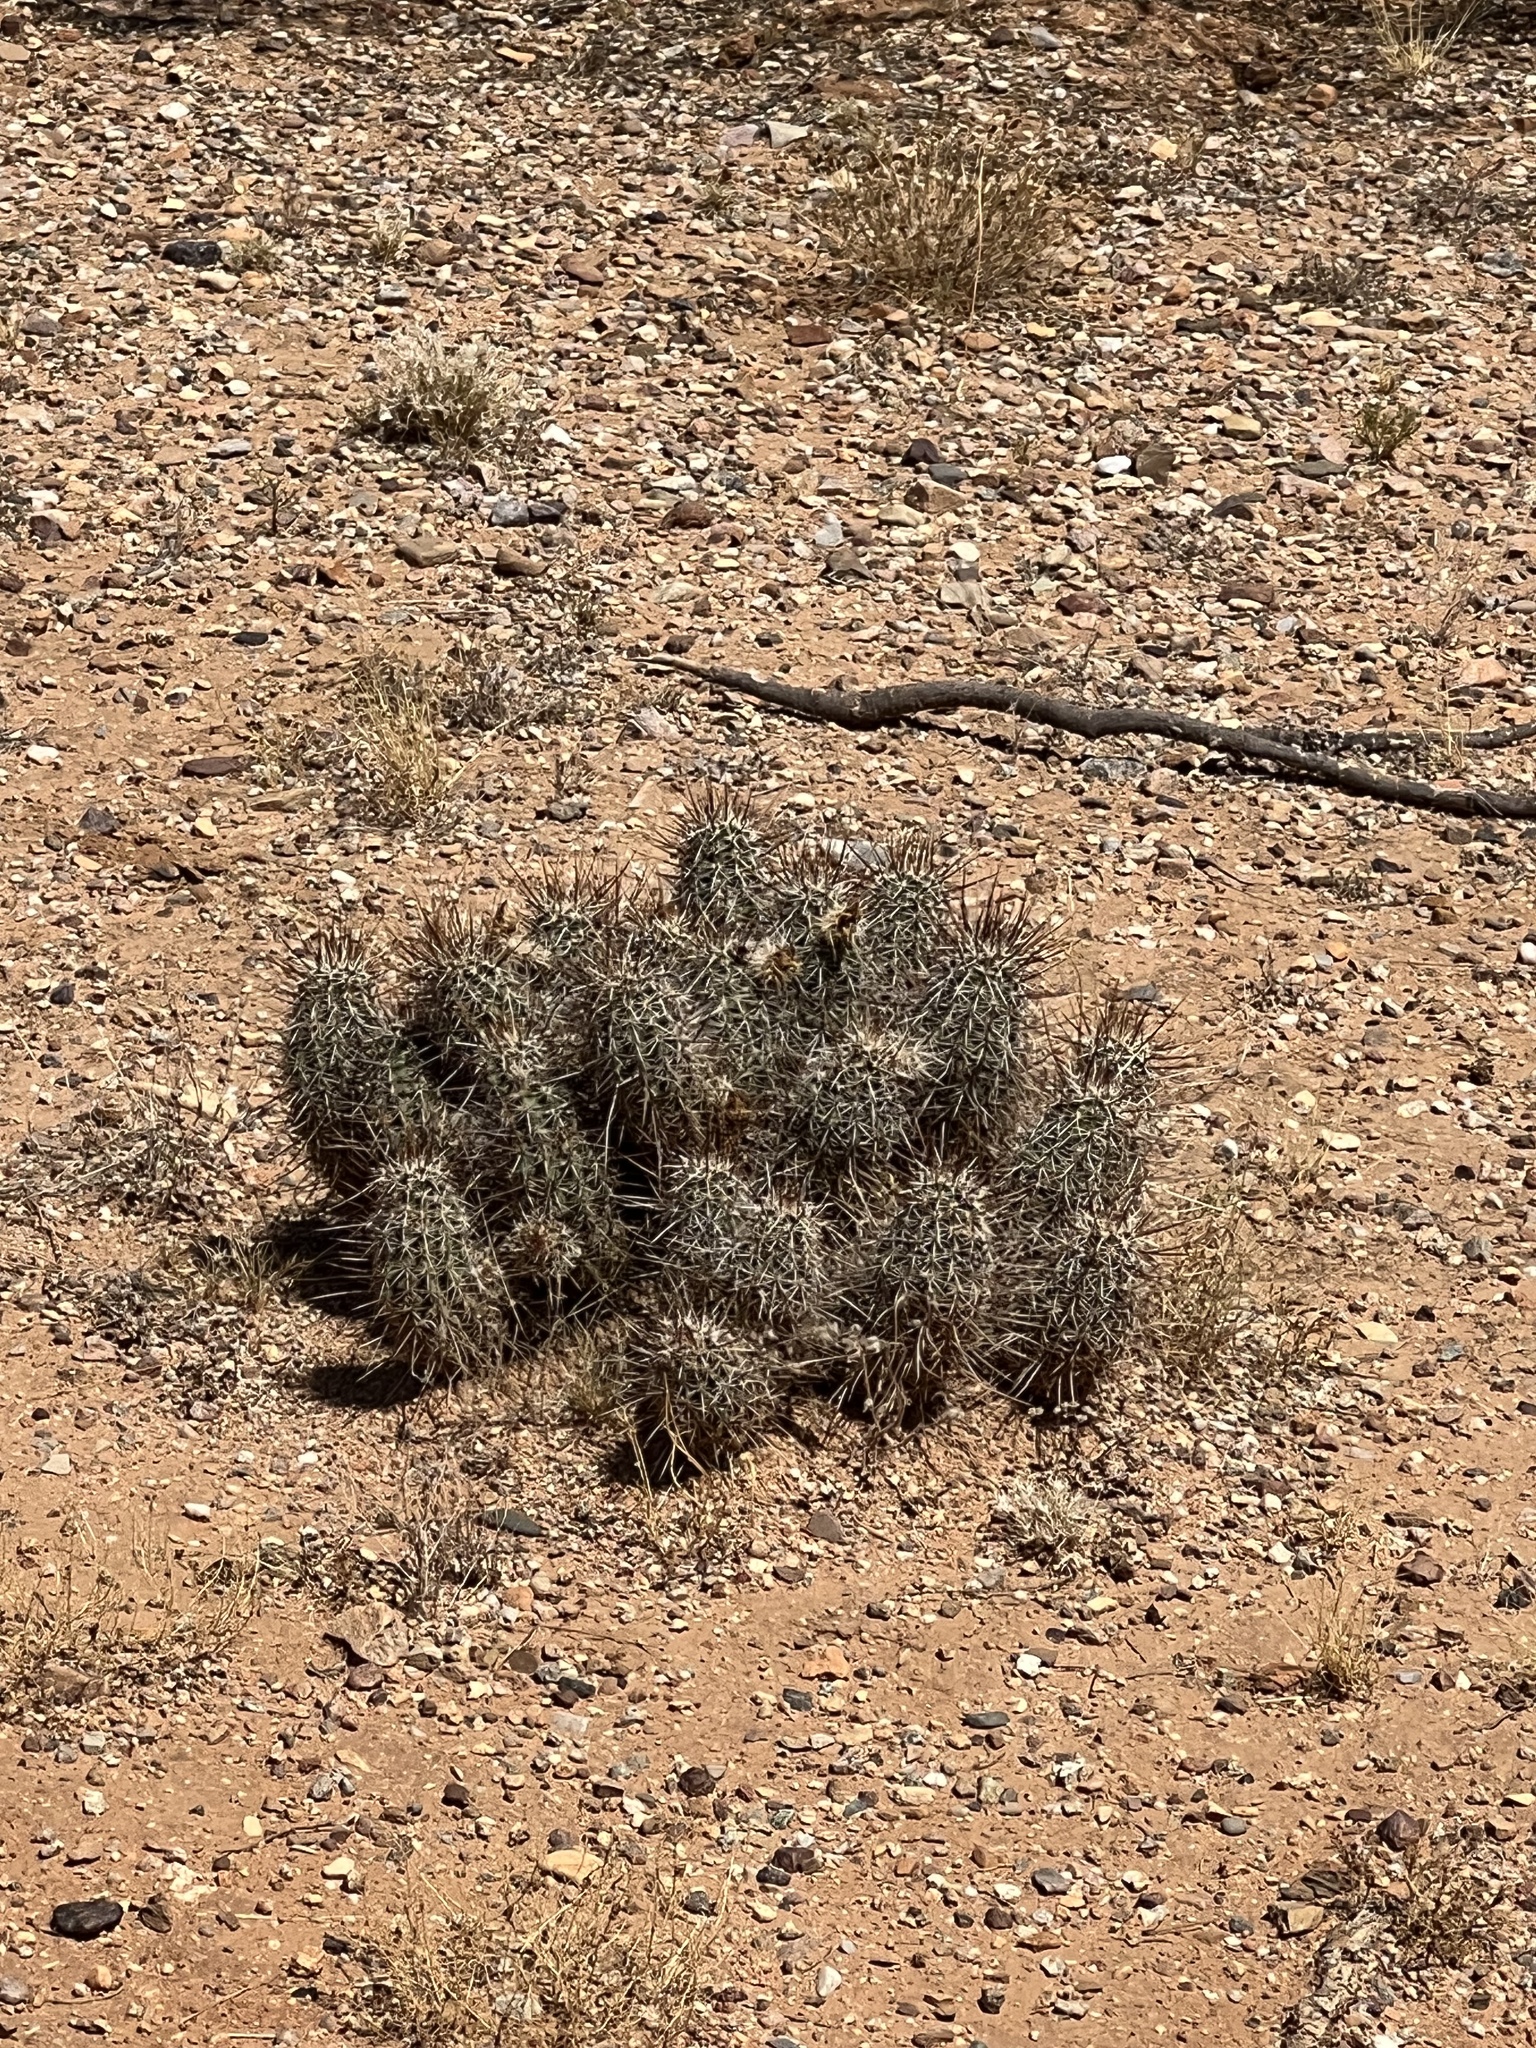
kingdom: Plantae
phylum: Tracheophyta
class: Magnoliopsida
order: Caryophyllales
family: Cactaceae
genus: Echinocereus
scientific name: Echinocereus fasciculatus
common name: Bundle hedgehog
